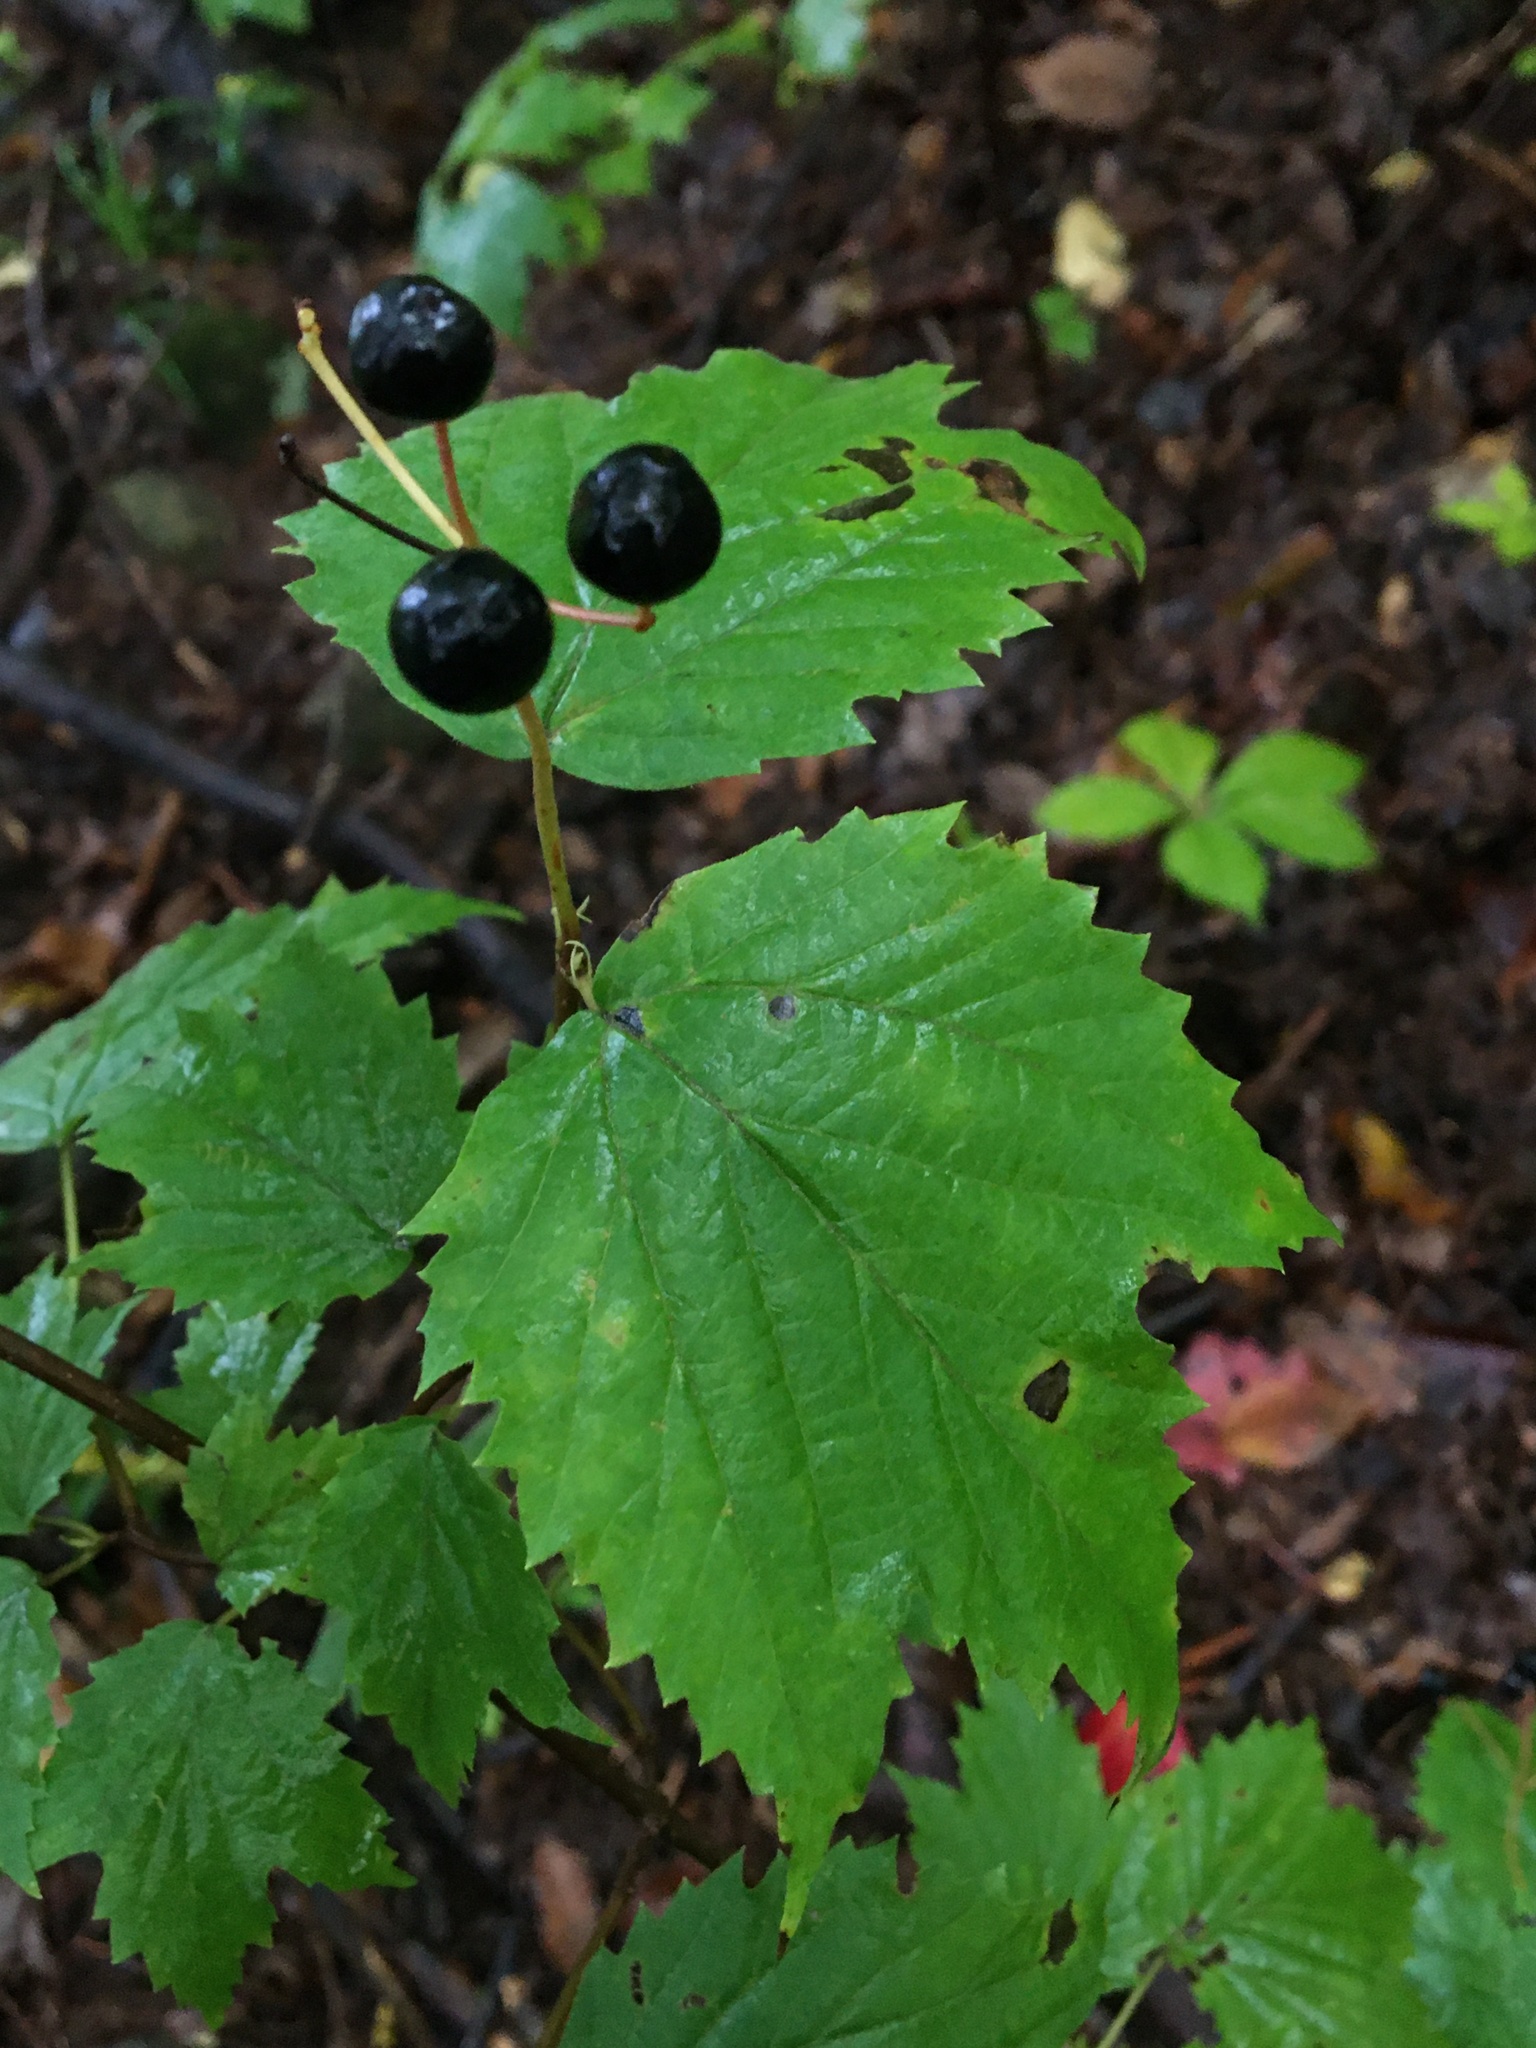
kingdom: Plantae
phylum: Tracheophyta
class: Magnoliopsida
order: Dipsacales
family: Viburnaceae
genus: Viburnum
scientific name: Viburnum acerifolium
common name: Dockmackie
